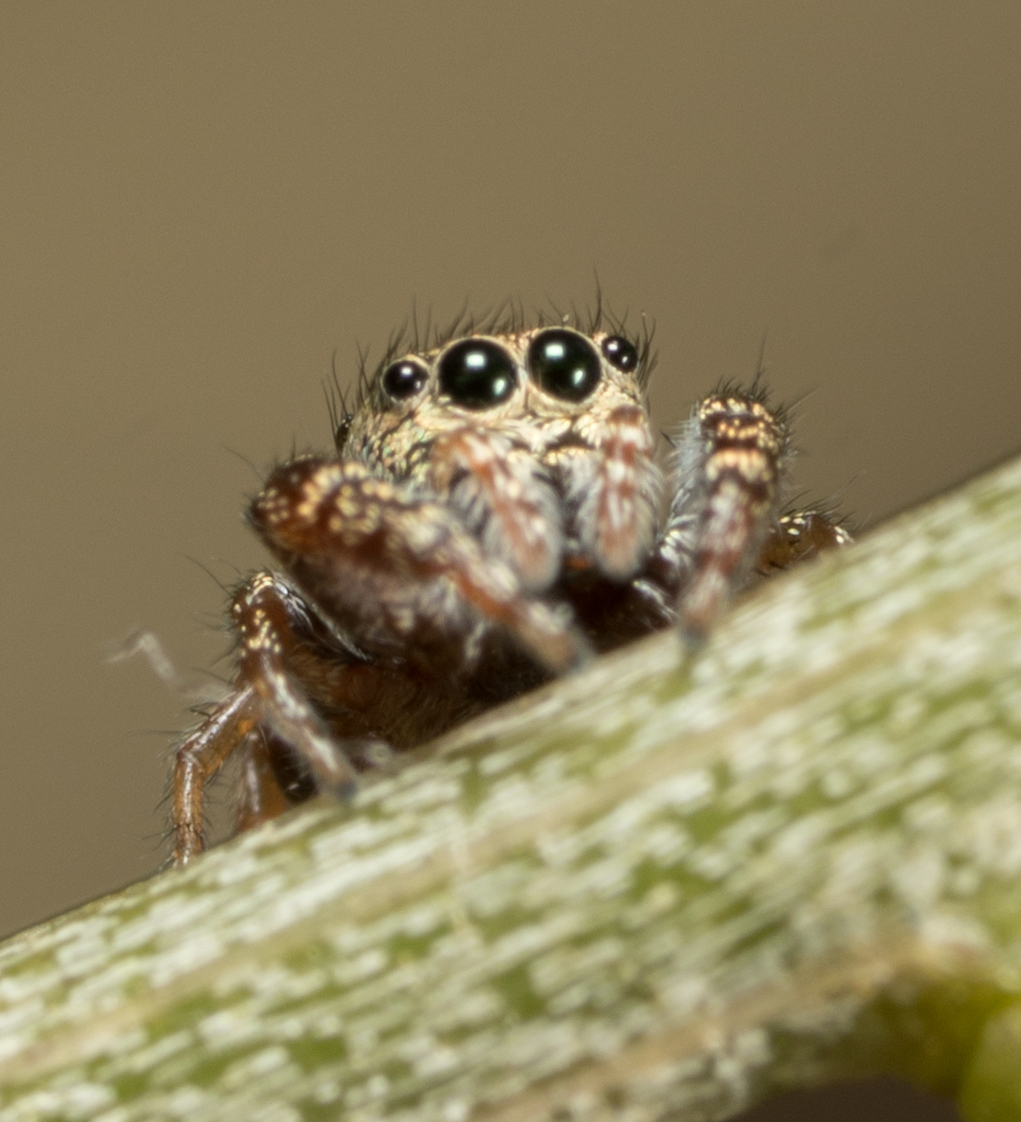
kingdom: Animalia
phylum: Arthropoda
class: Arachnida
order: Araneae
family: Salticidae
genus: Sassacus
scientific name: Sassacus vitis
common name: Jumping spiders
